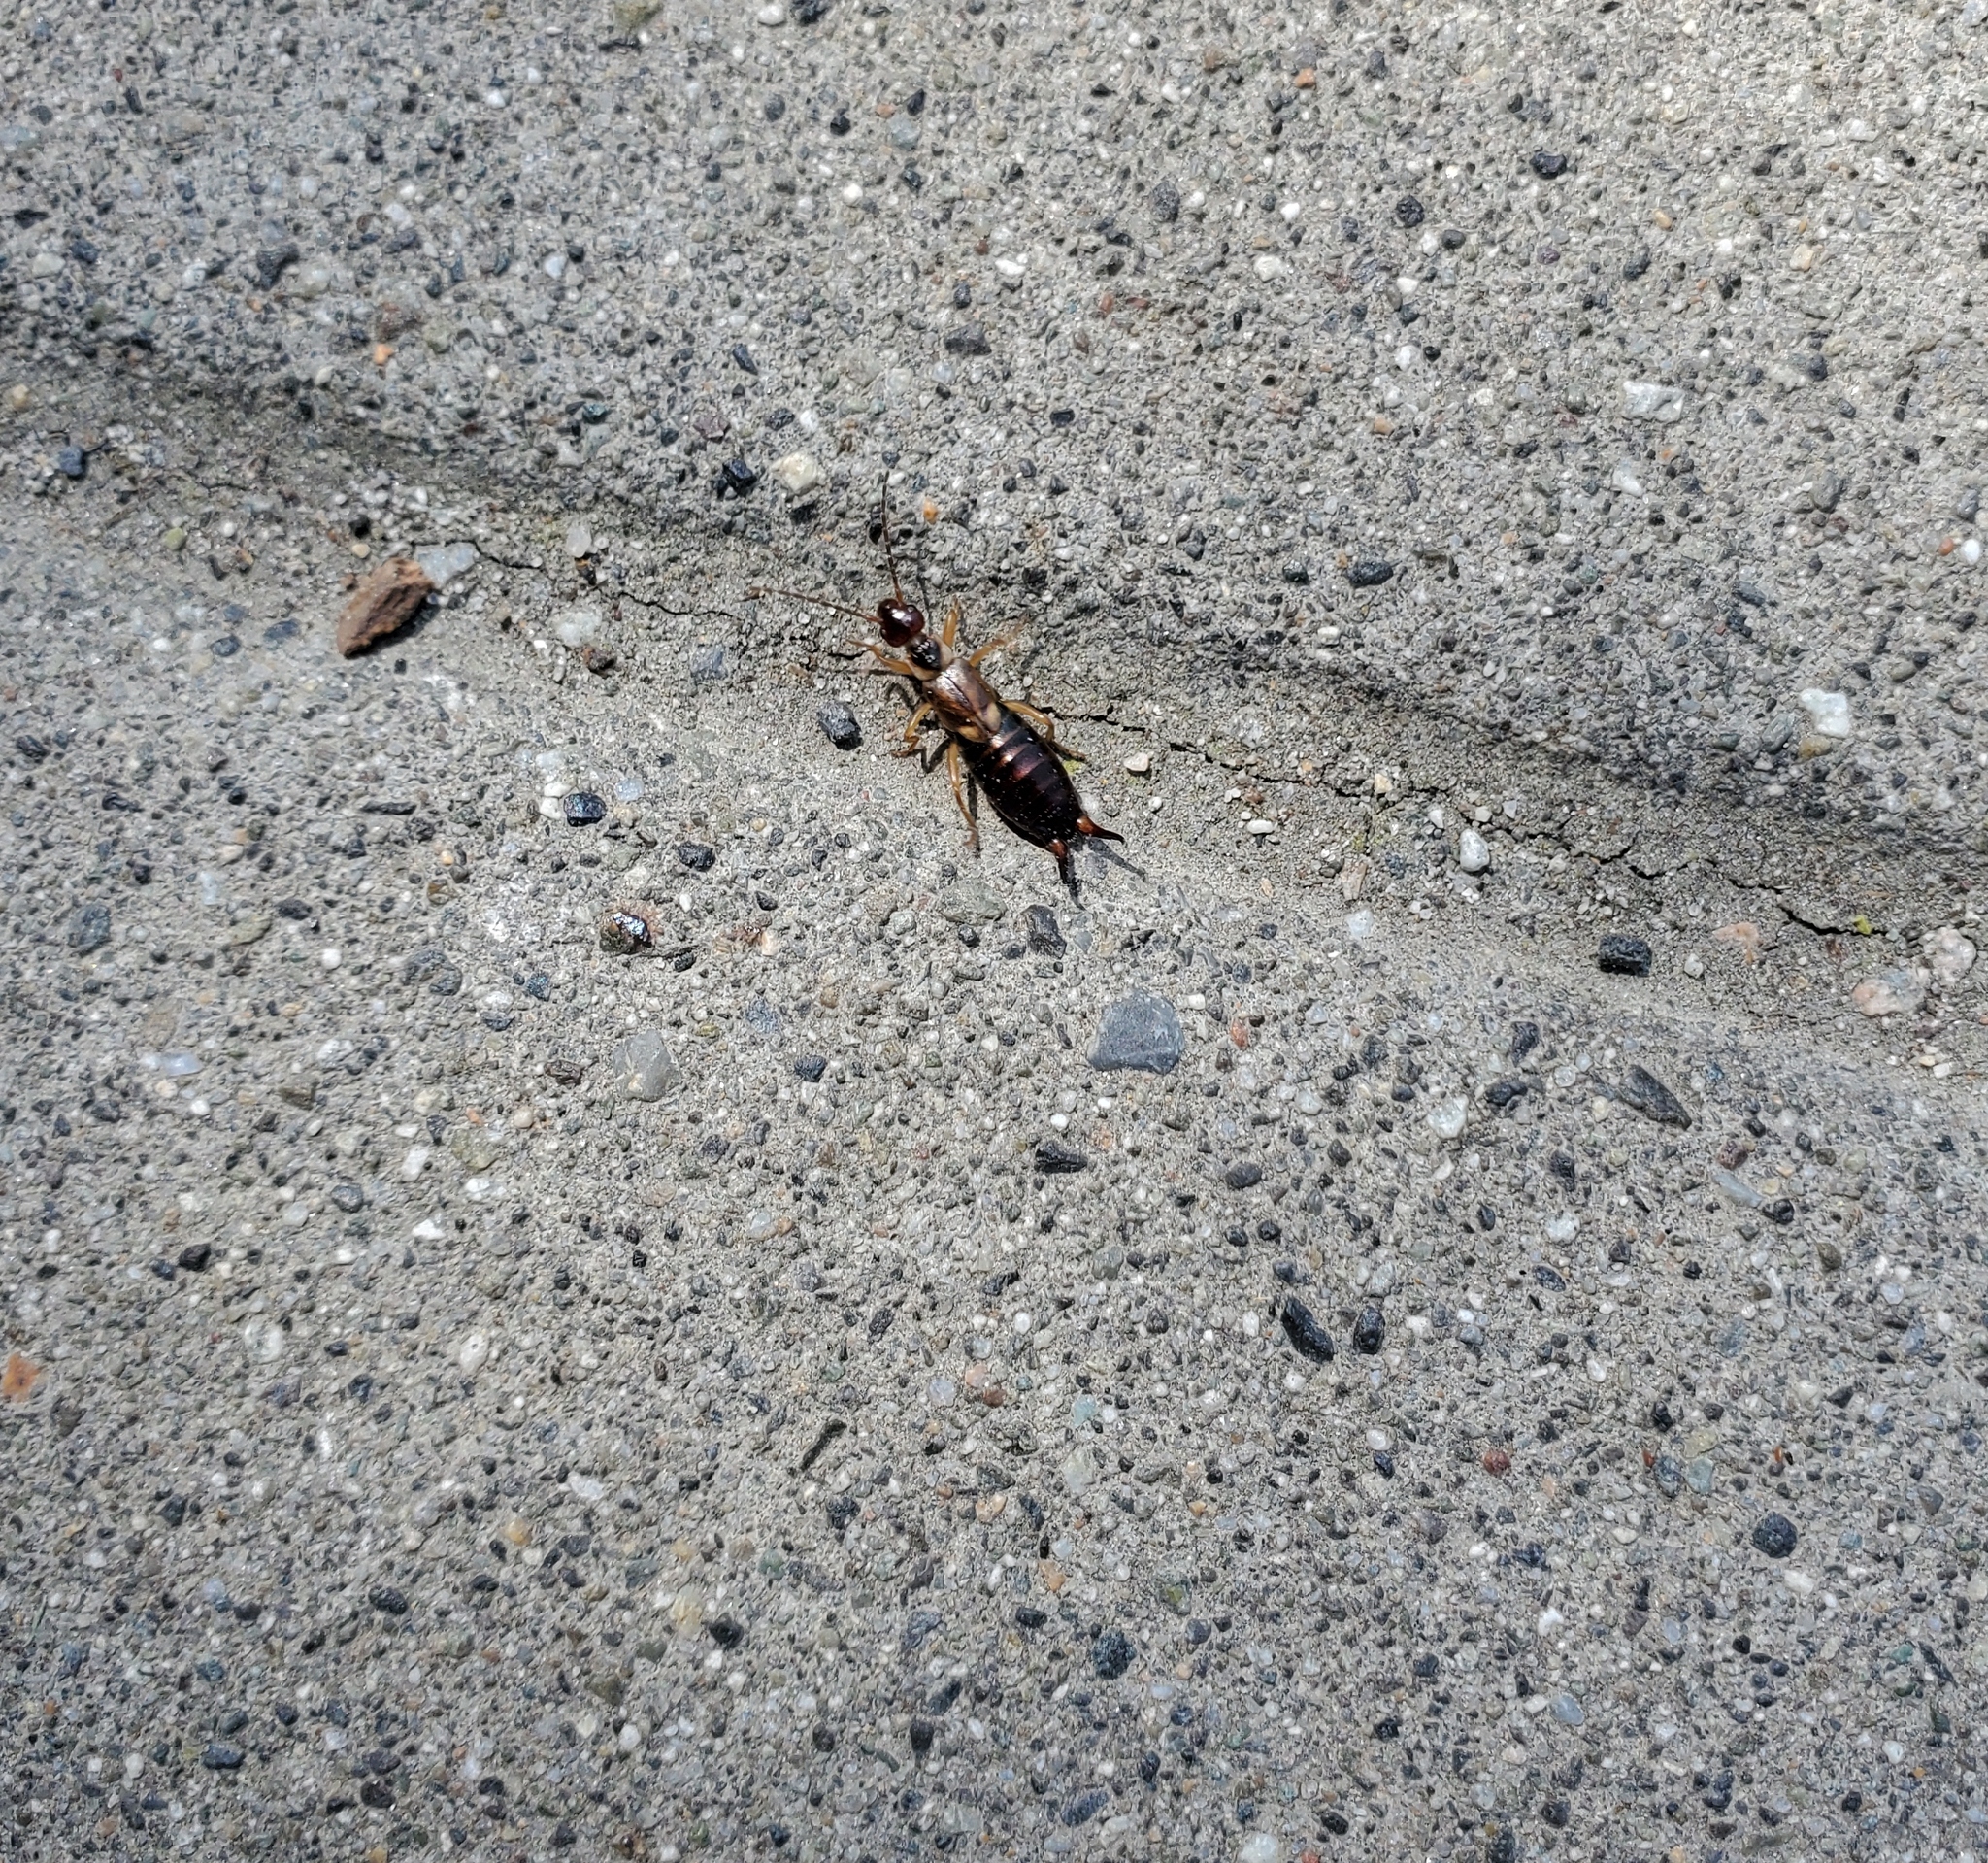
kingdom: Animalia
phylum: Arthropoda
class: Insecta
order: Dermaptera
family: Forficulidae
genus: Forficula
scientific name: Forficula
